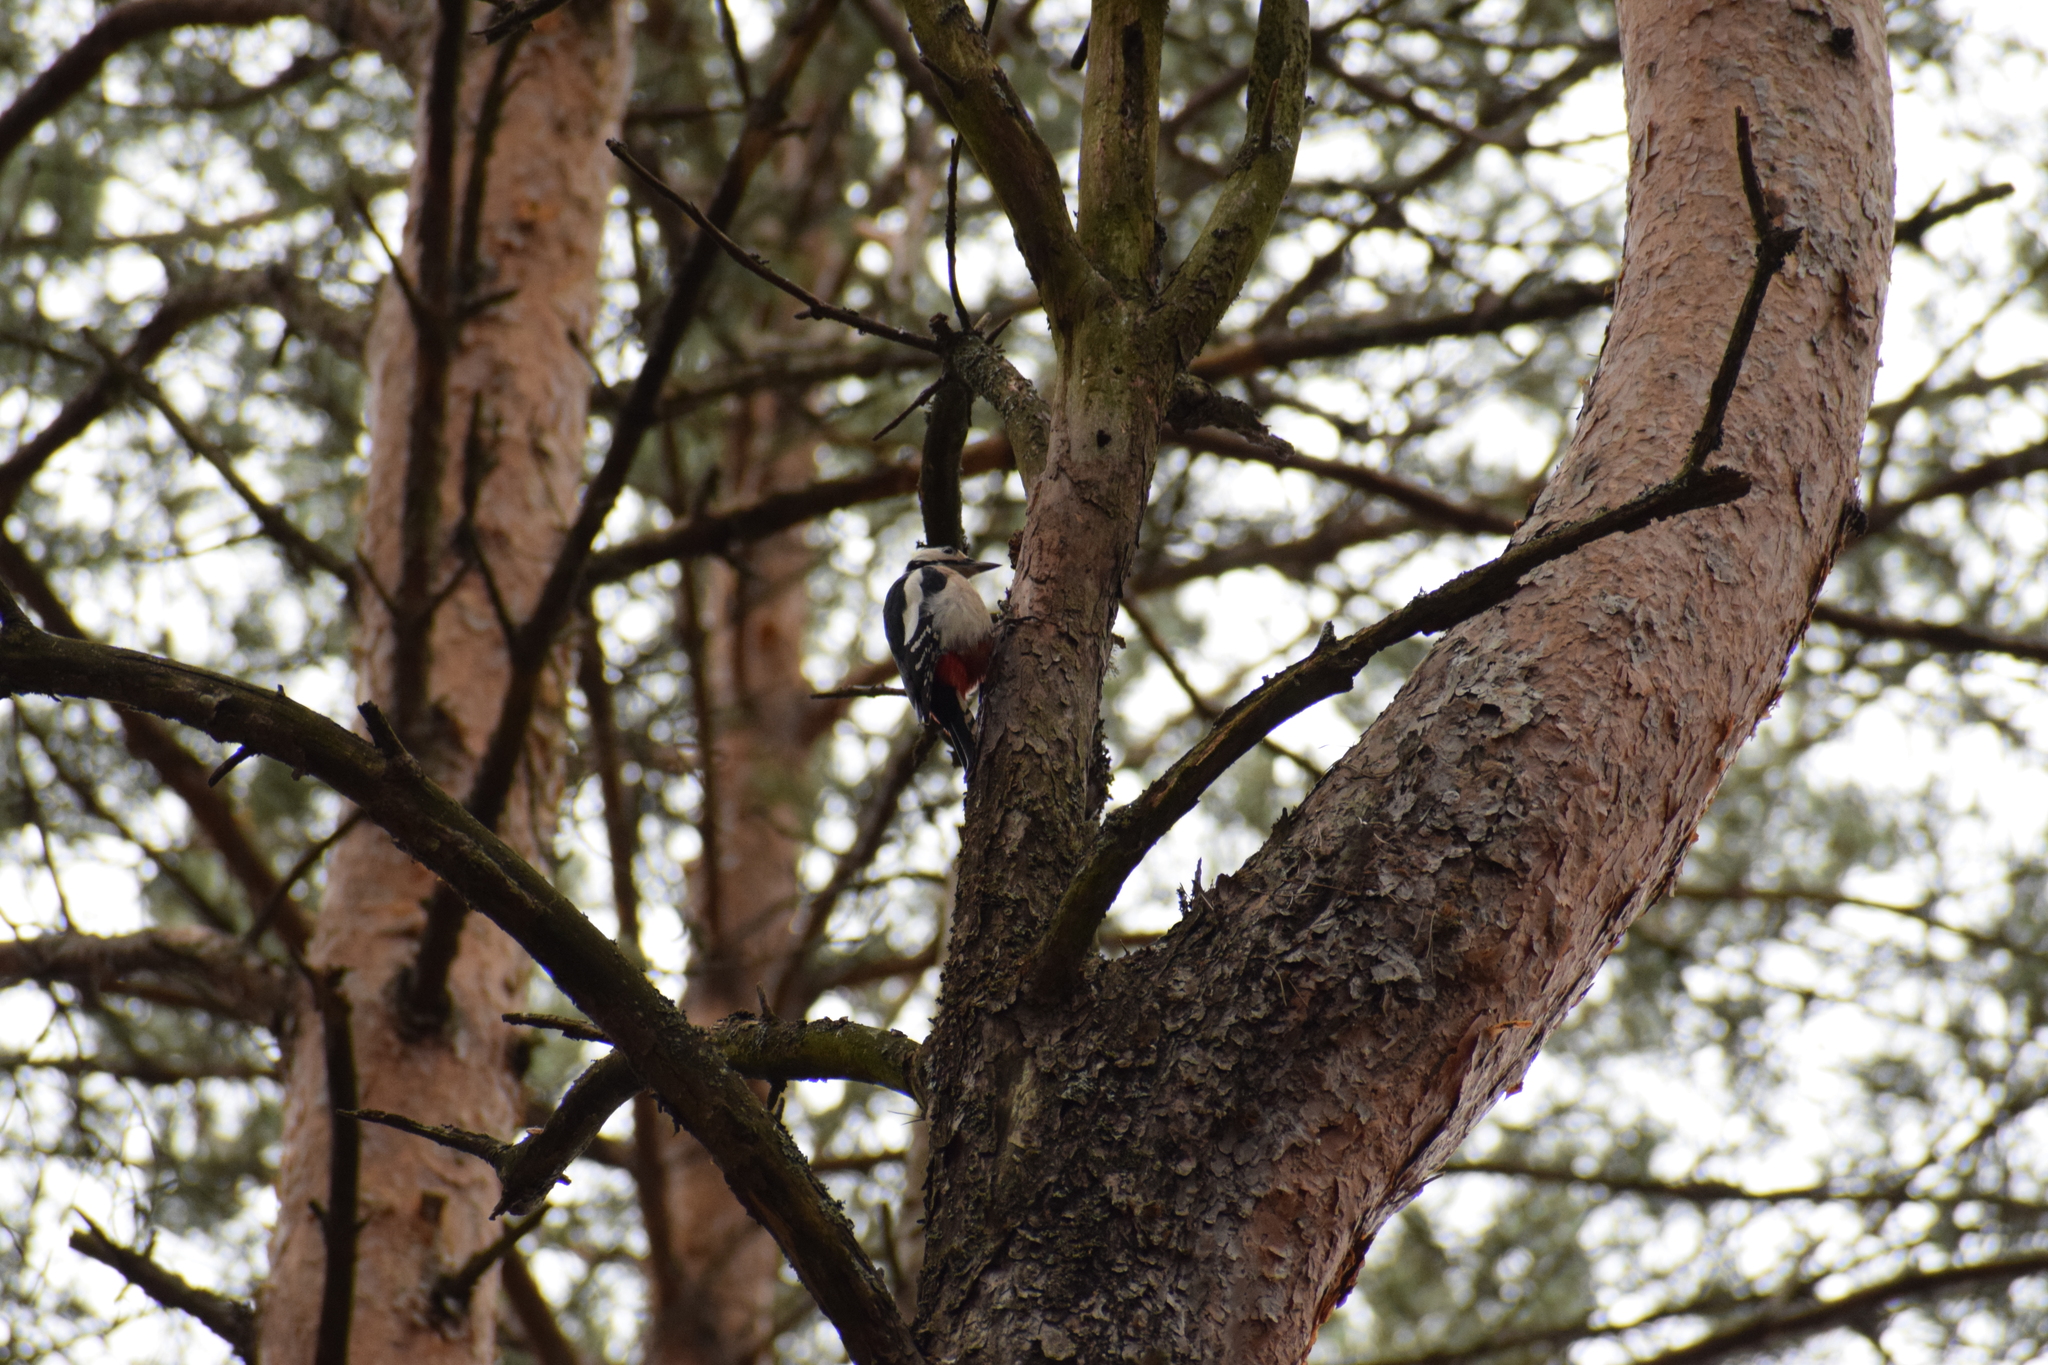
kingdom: Animalia
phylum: Chordata
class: Aves
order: Piciformes
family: Picidae
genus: Dendrocopos
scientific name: Dendrocopos major
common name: Great spotted woodpecker
